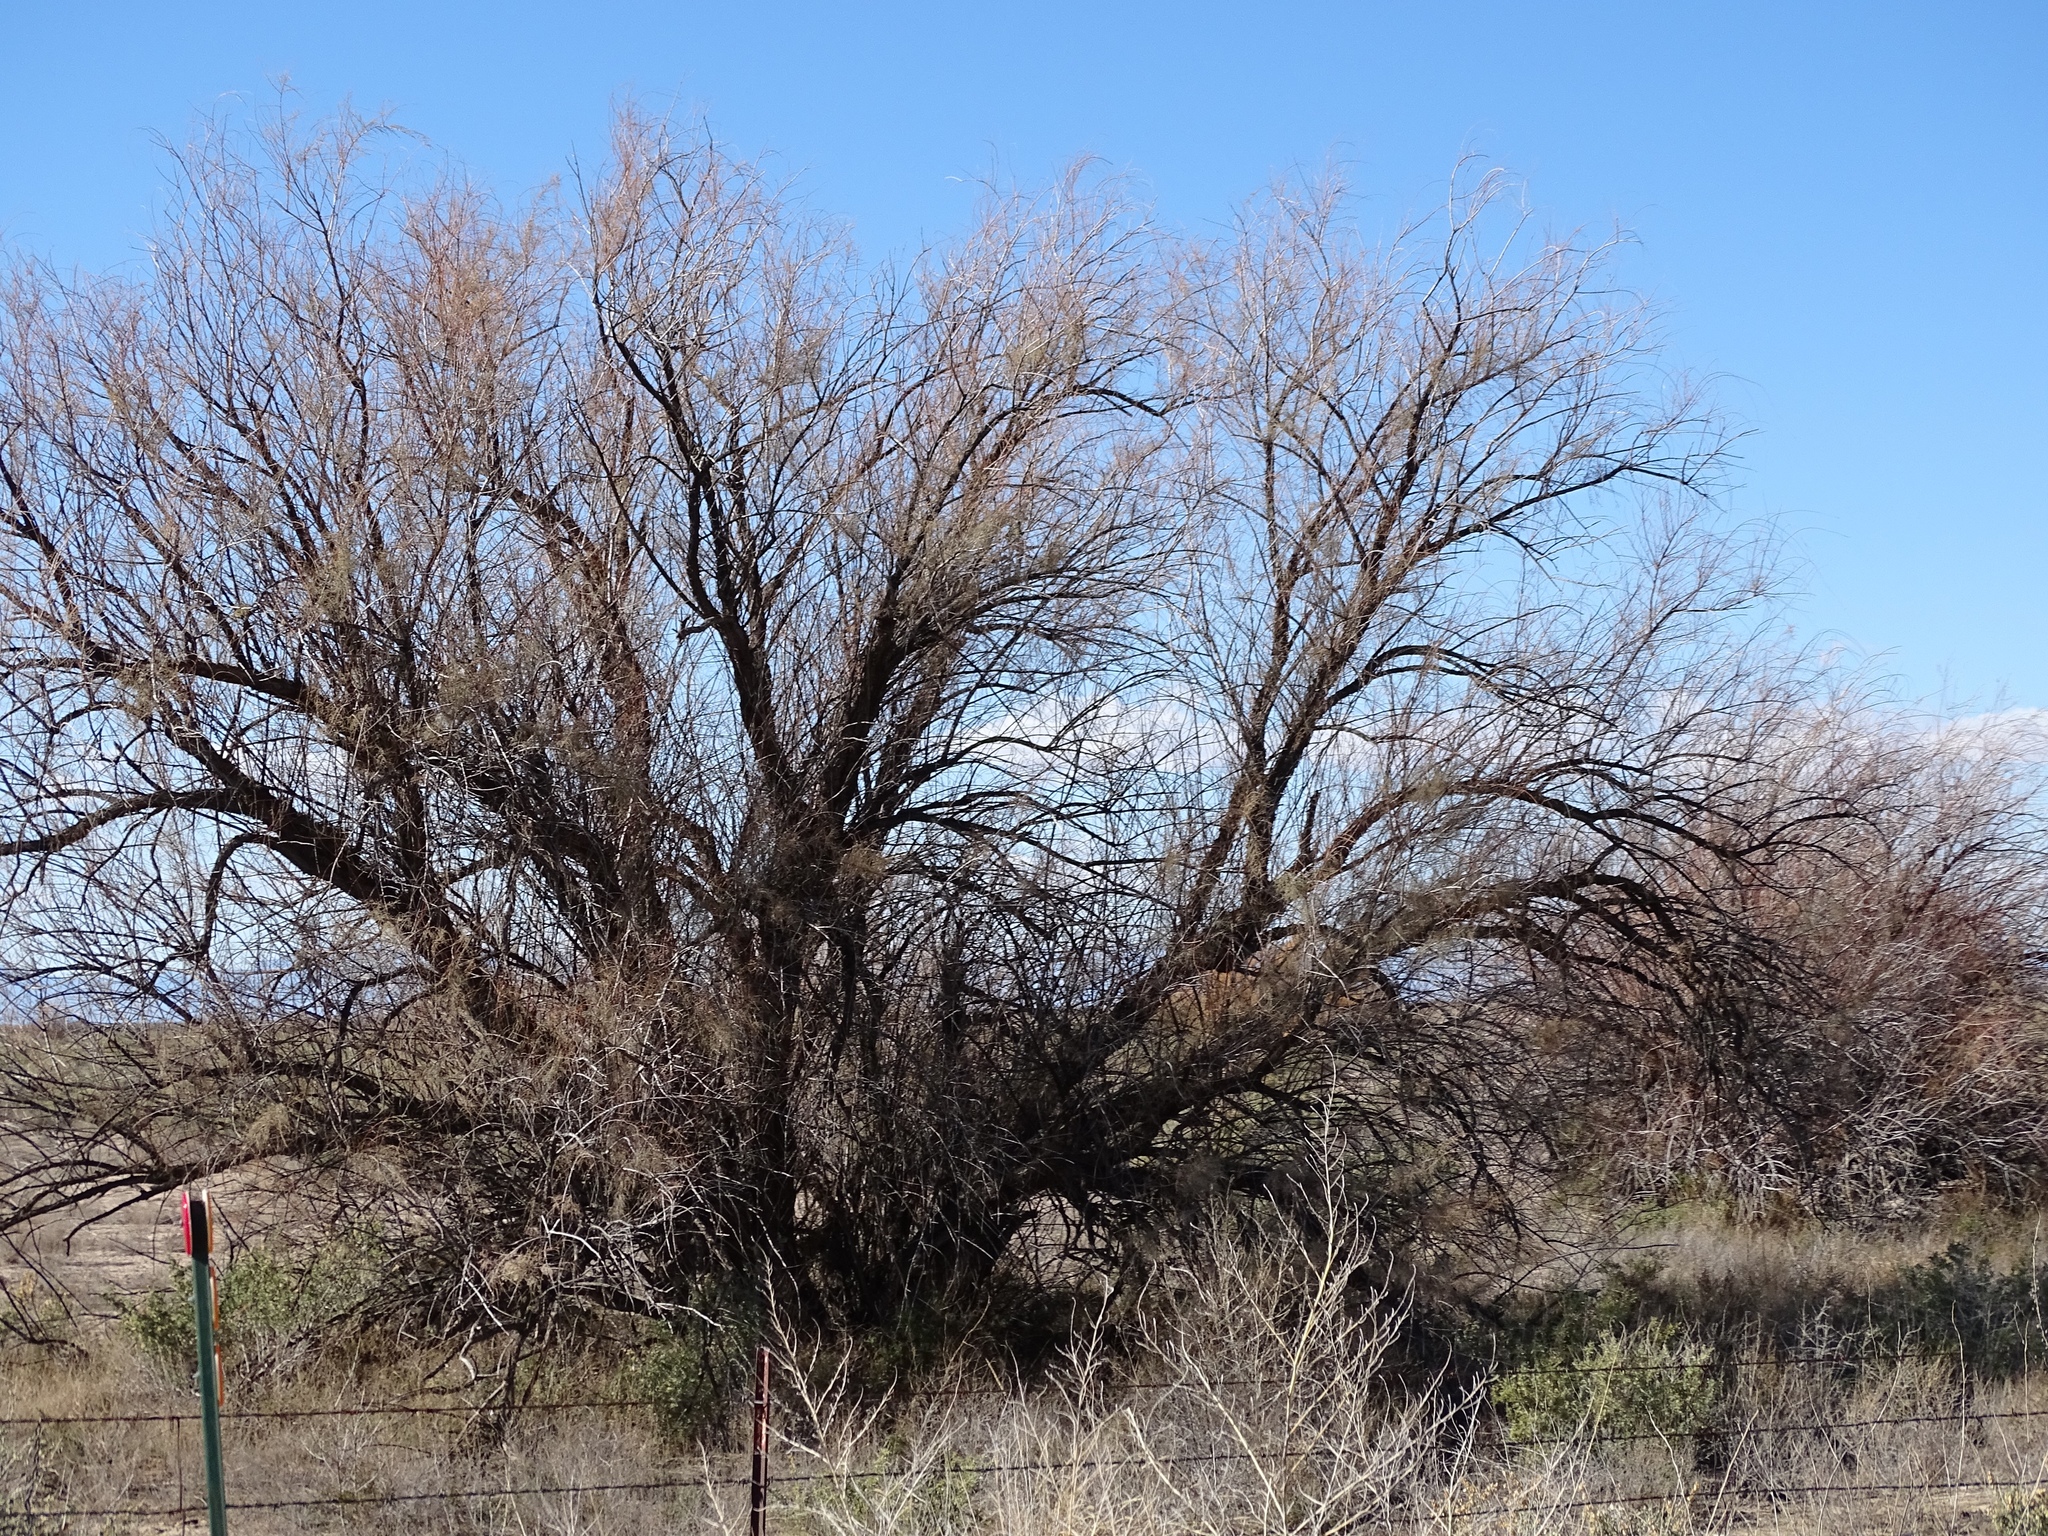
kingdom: Plantae
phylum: Tracheophyta
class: Magnoliopsida
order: Caryophyllales
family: Tamaricaceae
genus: Tamarix
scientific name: Tamarix
